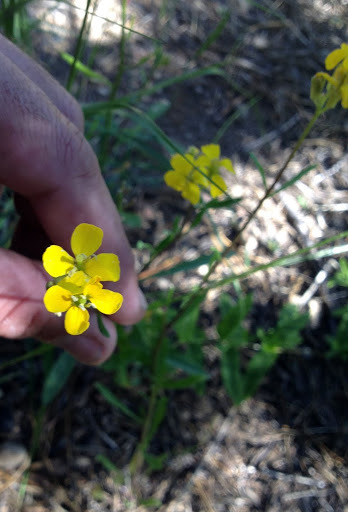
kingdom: Plantae
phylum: Tracheophyta
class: Magnoliopsida
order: Brassicales
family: Brassicaceae
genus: Erysimum
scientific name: Erysimum capitatum
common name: Western wallflower
